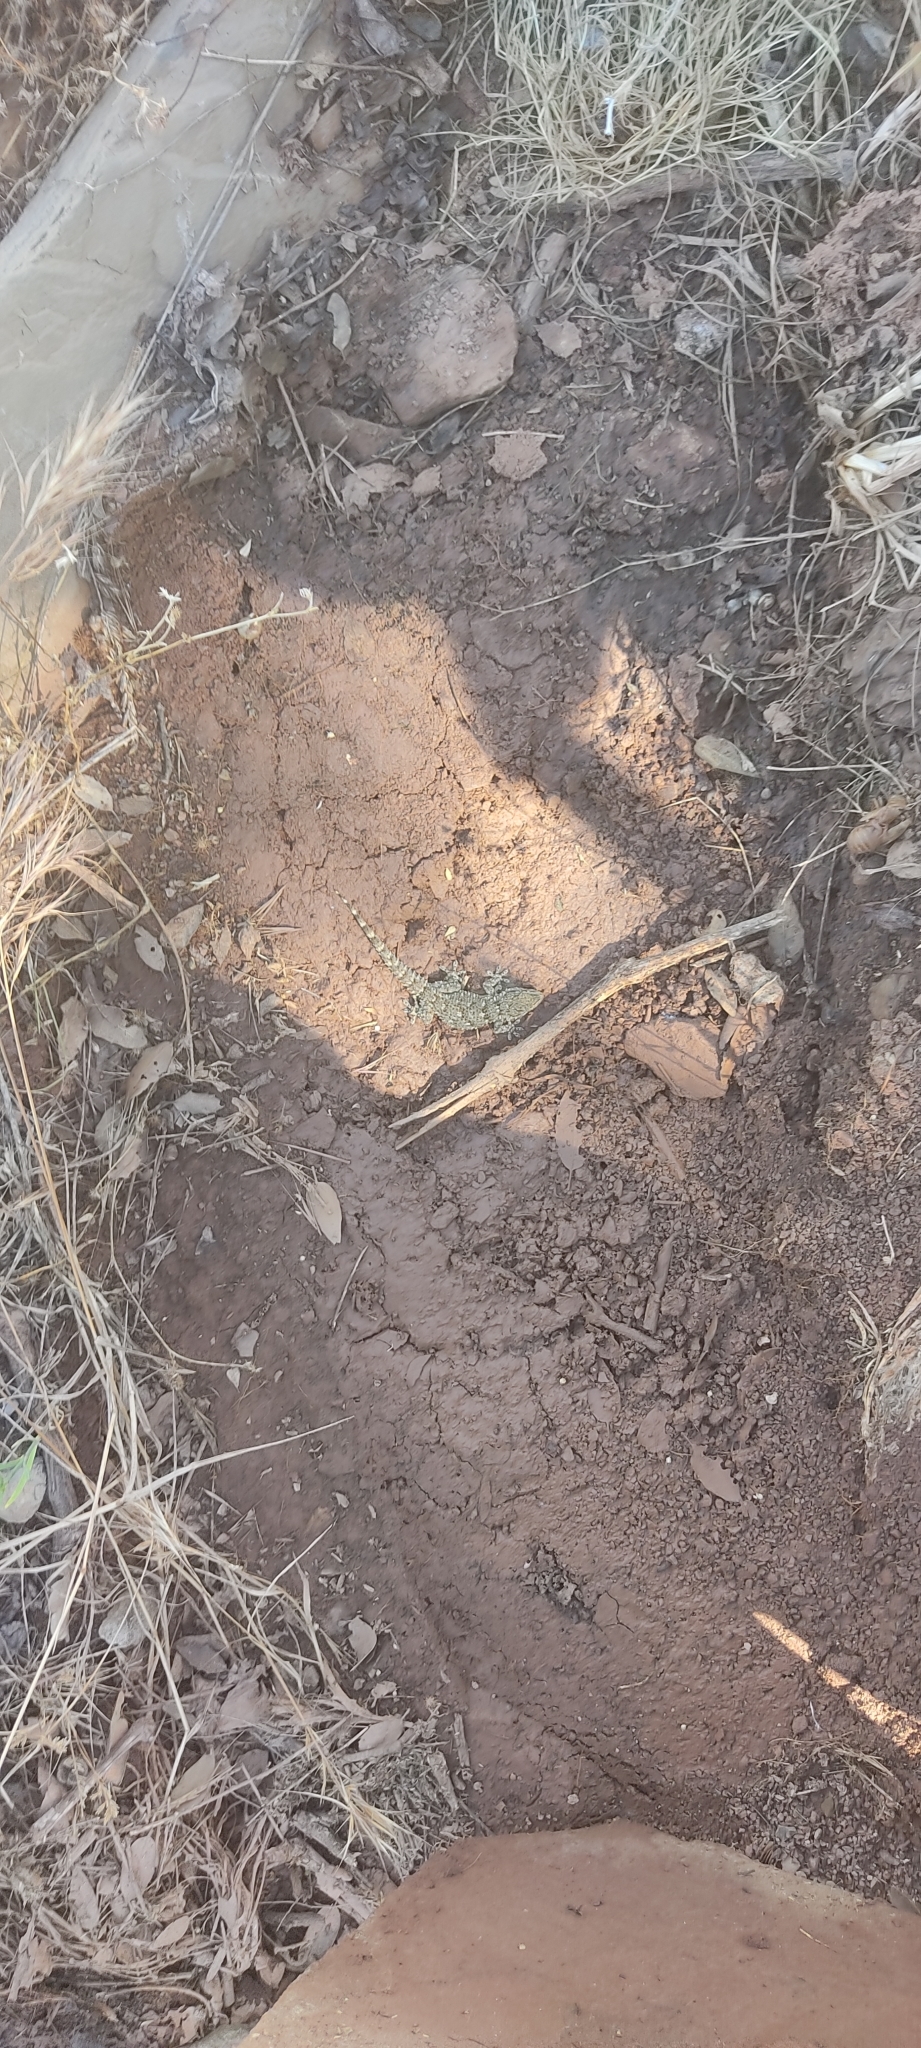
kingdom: Animalia
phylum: Chordata
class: Squamata
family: Phyllodactylidae
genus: Tarentola
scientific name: Tarentola mauritanica
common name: Moorish gecko
